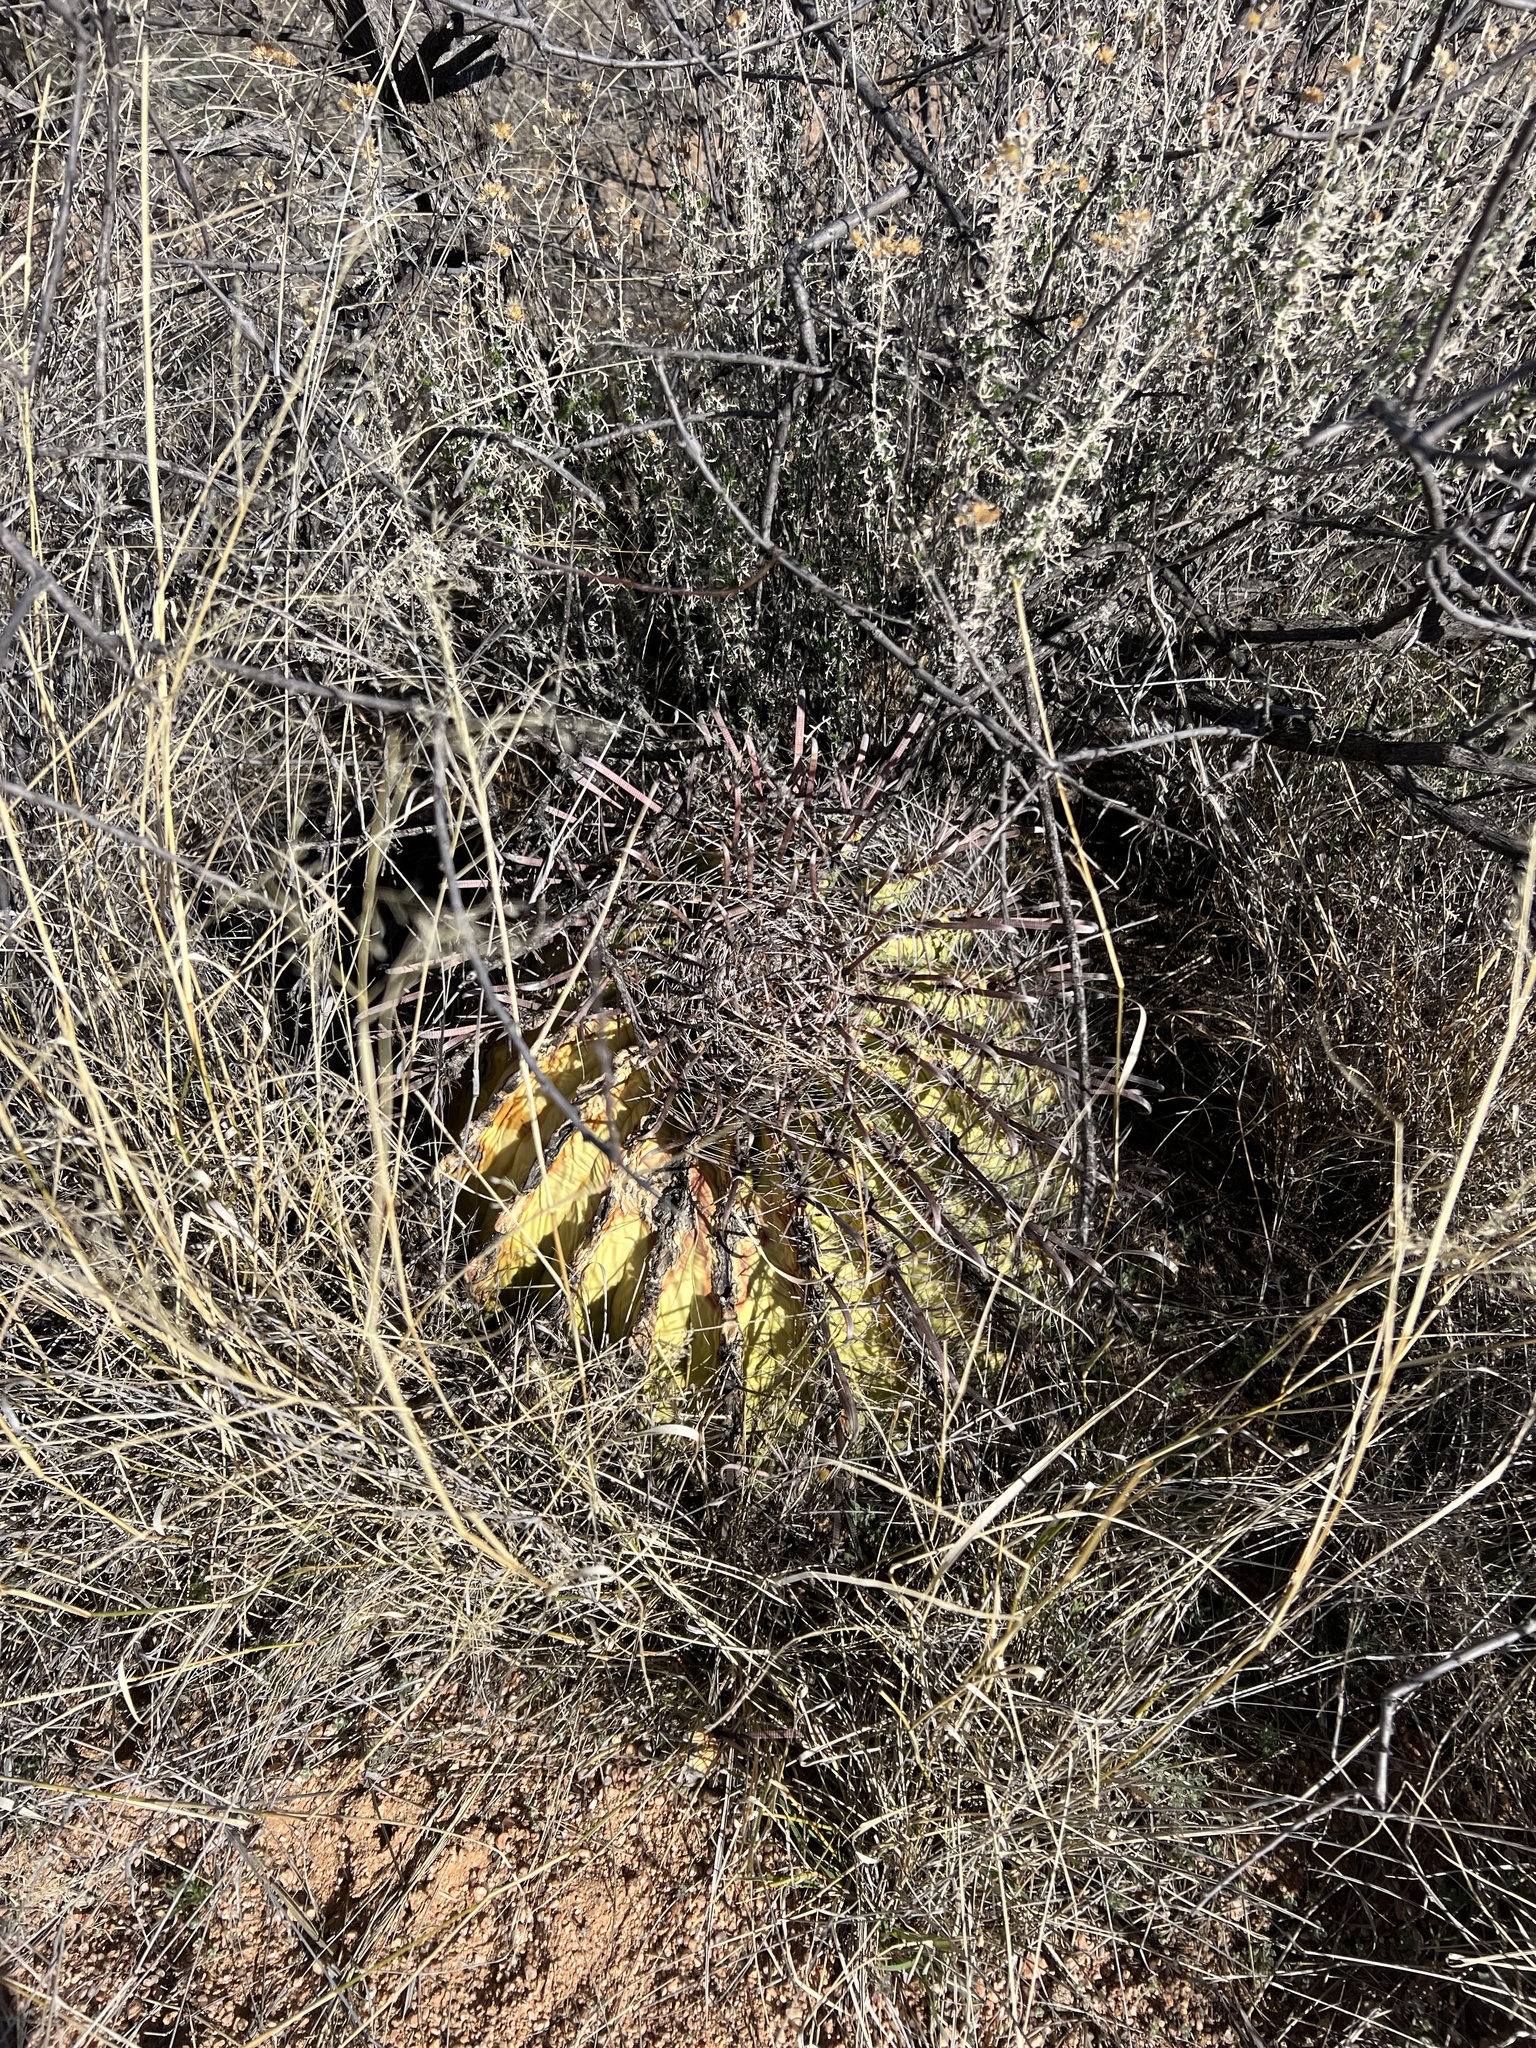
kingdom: Plantae
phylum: Tracheophyta
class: Magnoliopsida
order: Caryophyllales
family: Cactaceae
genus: Ferocactus
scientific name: Ferocactus wislizeni
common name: Candy barrel cactus
